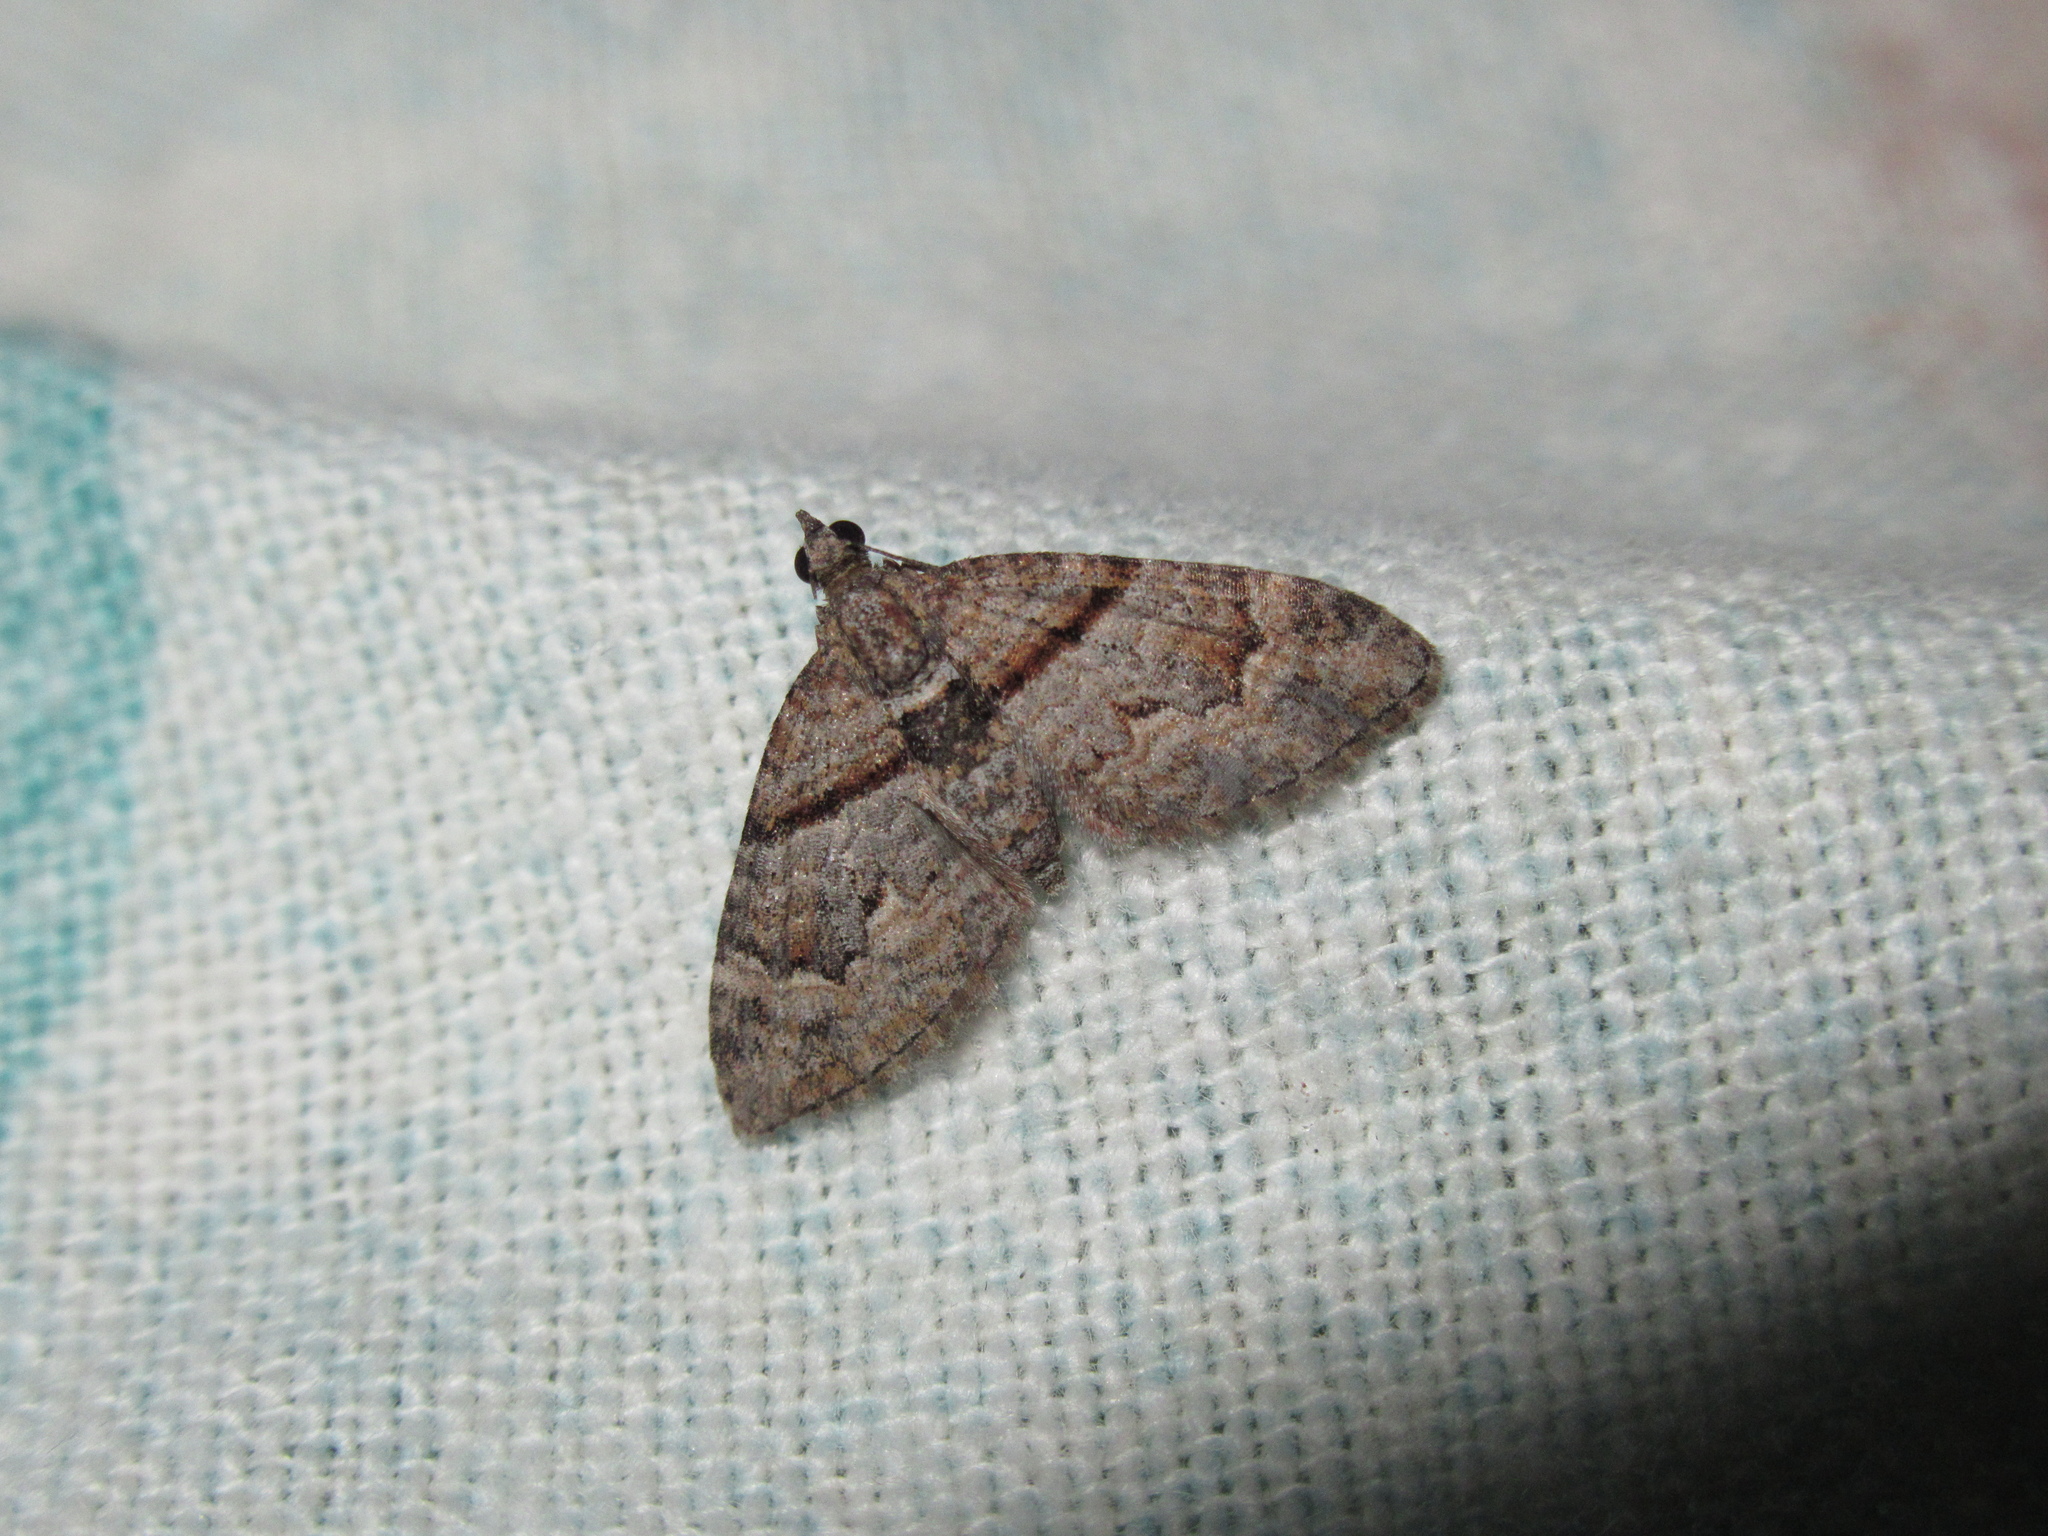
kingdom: Animalia
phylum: Arthropoda
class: Insecta
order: Lepidoptera
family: Geometridae
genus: Phrissogonus
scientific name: Phrissogonus laticostata
